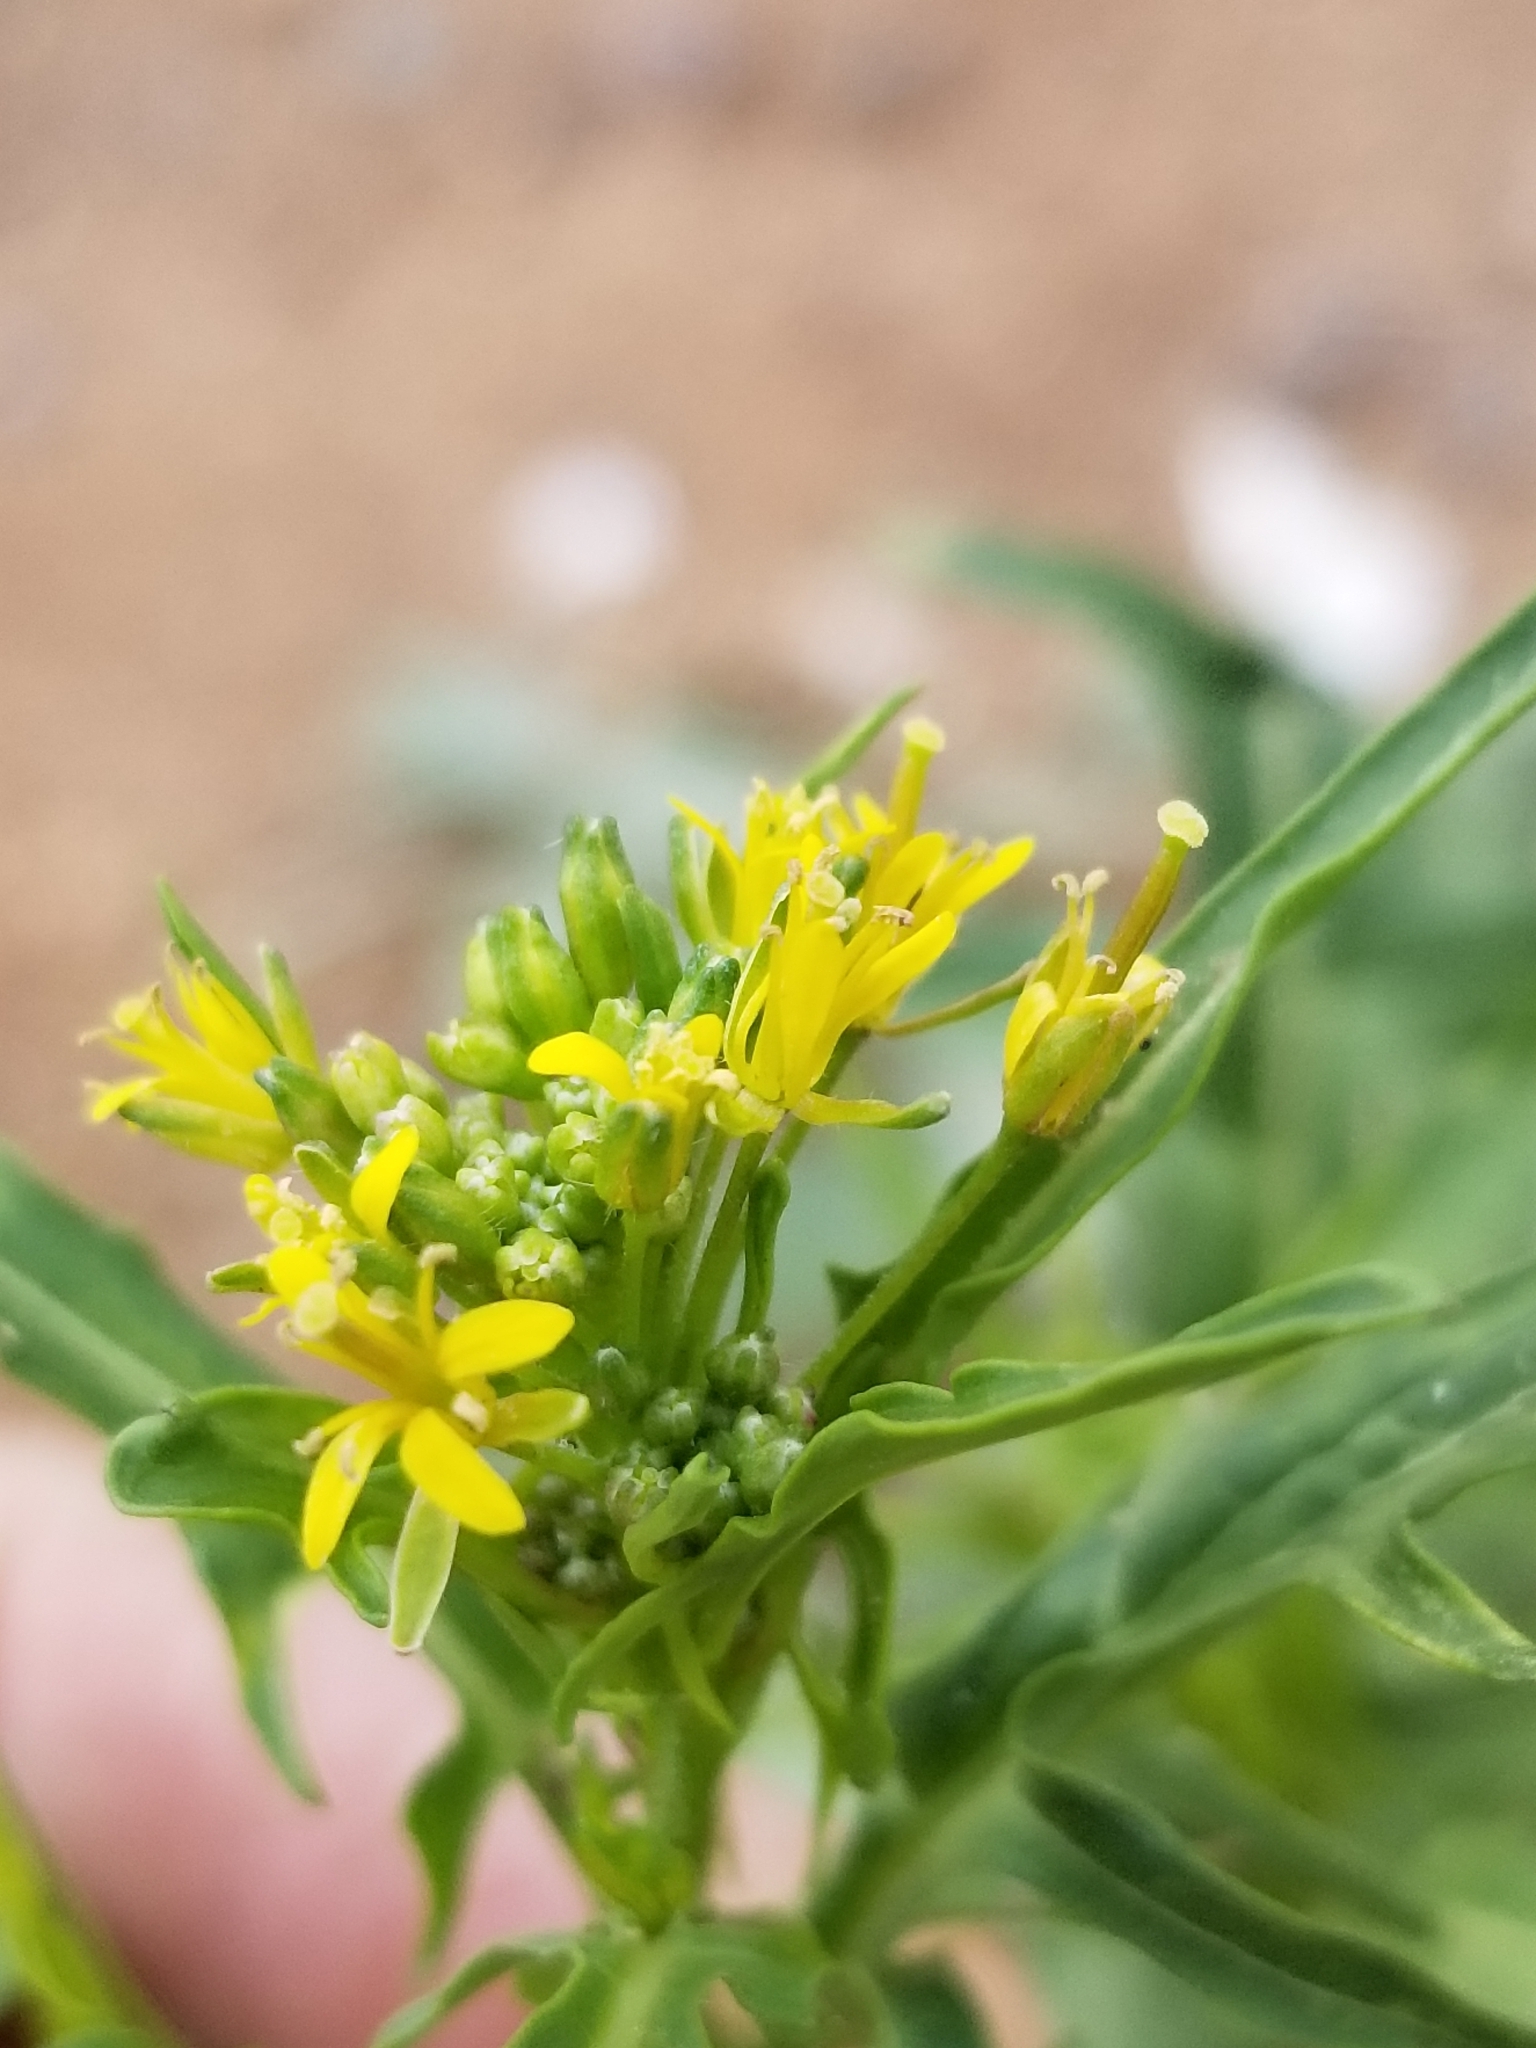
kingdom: Plantae
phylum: Tracheophyta
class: Magnoliopsida
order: Brassicales
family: Brassicaceae
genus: Sisymbrium
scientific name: Sisymbrium irio
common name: London rocket
